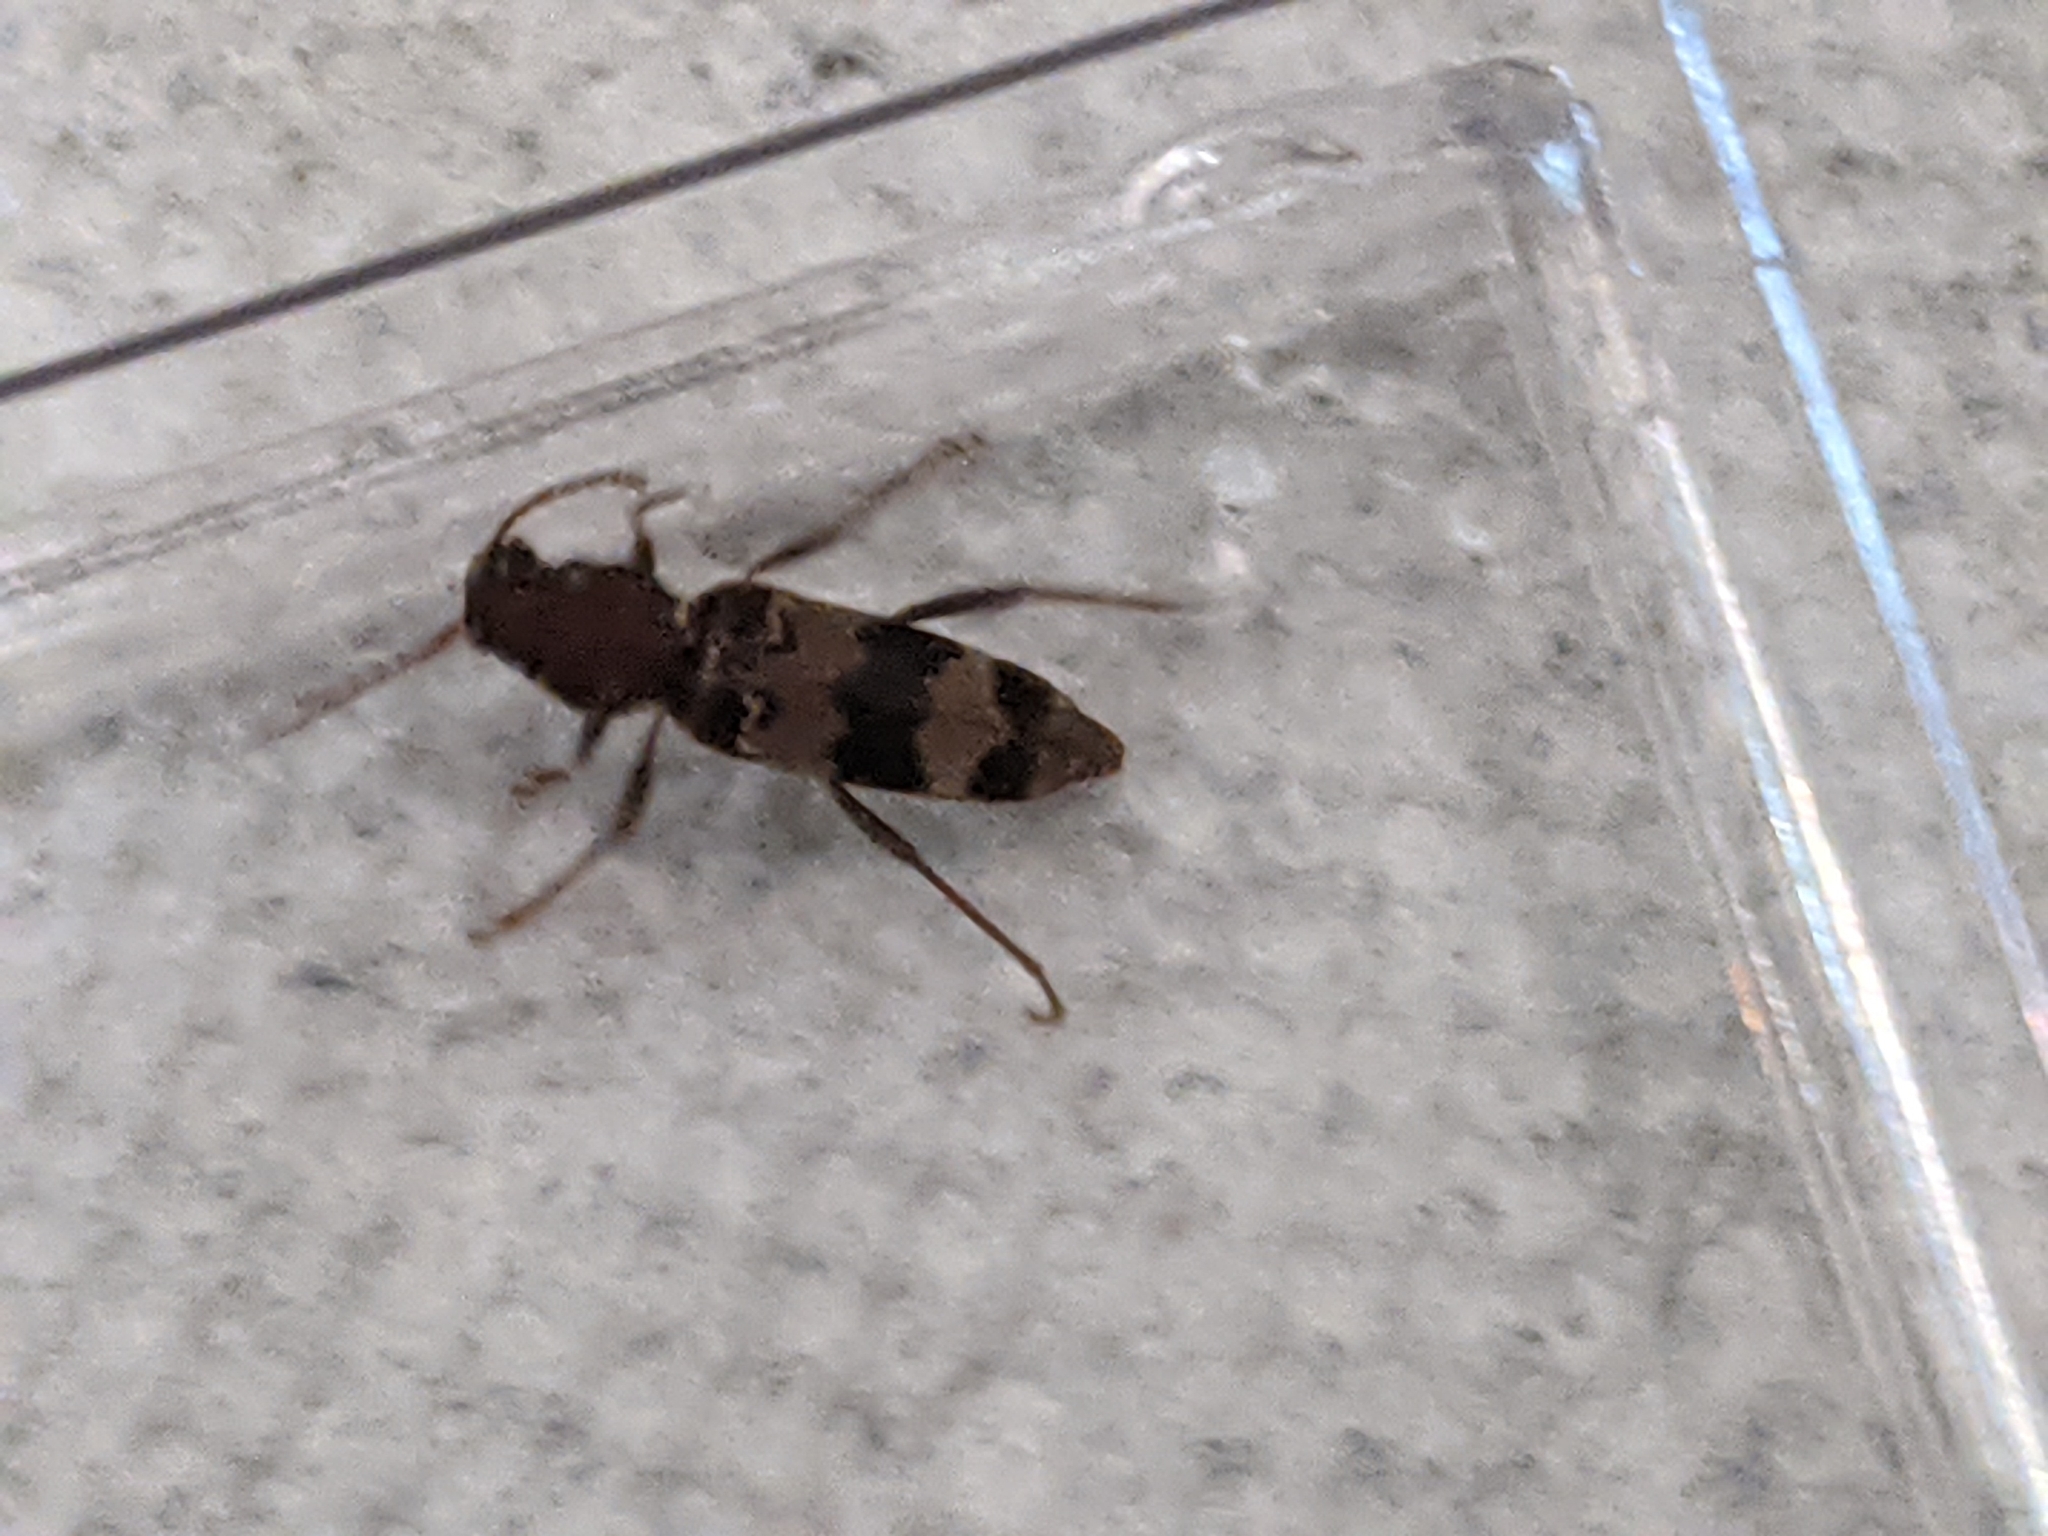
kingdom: Animalia
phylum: Arthropoda
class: Insecta
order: Coleoptera
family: Cerambycidae
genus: Xylotrechus
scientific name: Xylotrechus colonus
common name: Long-horned beetle
